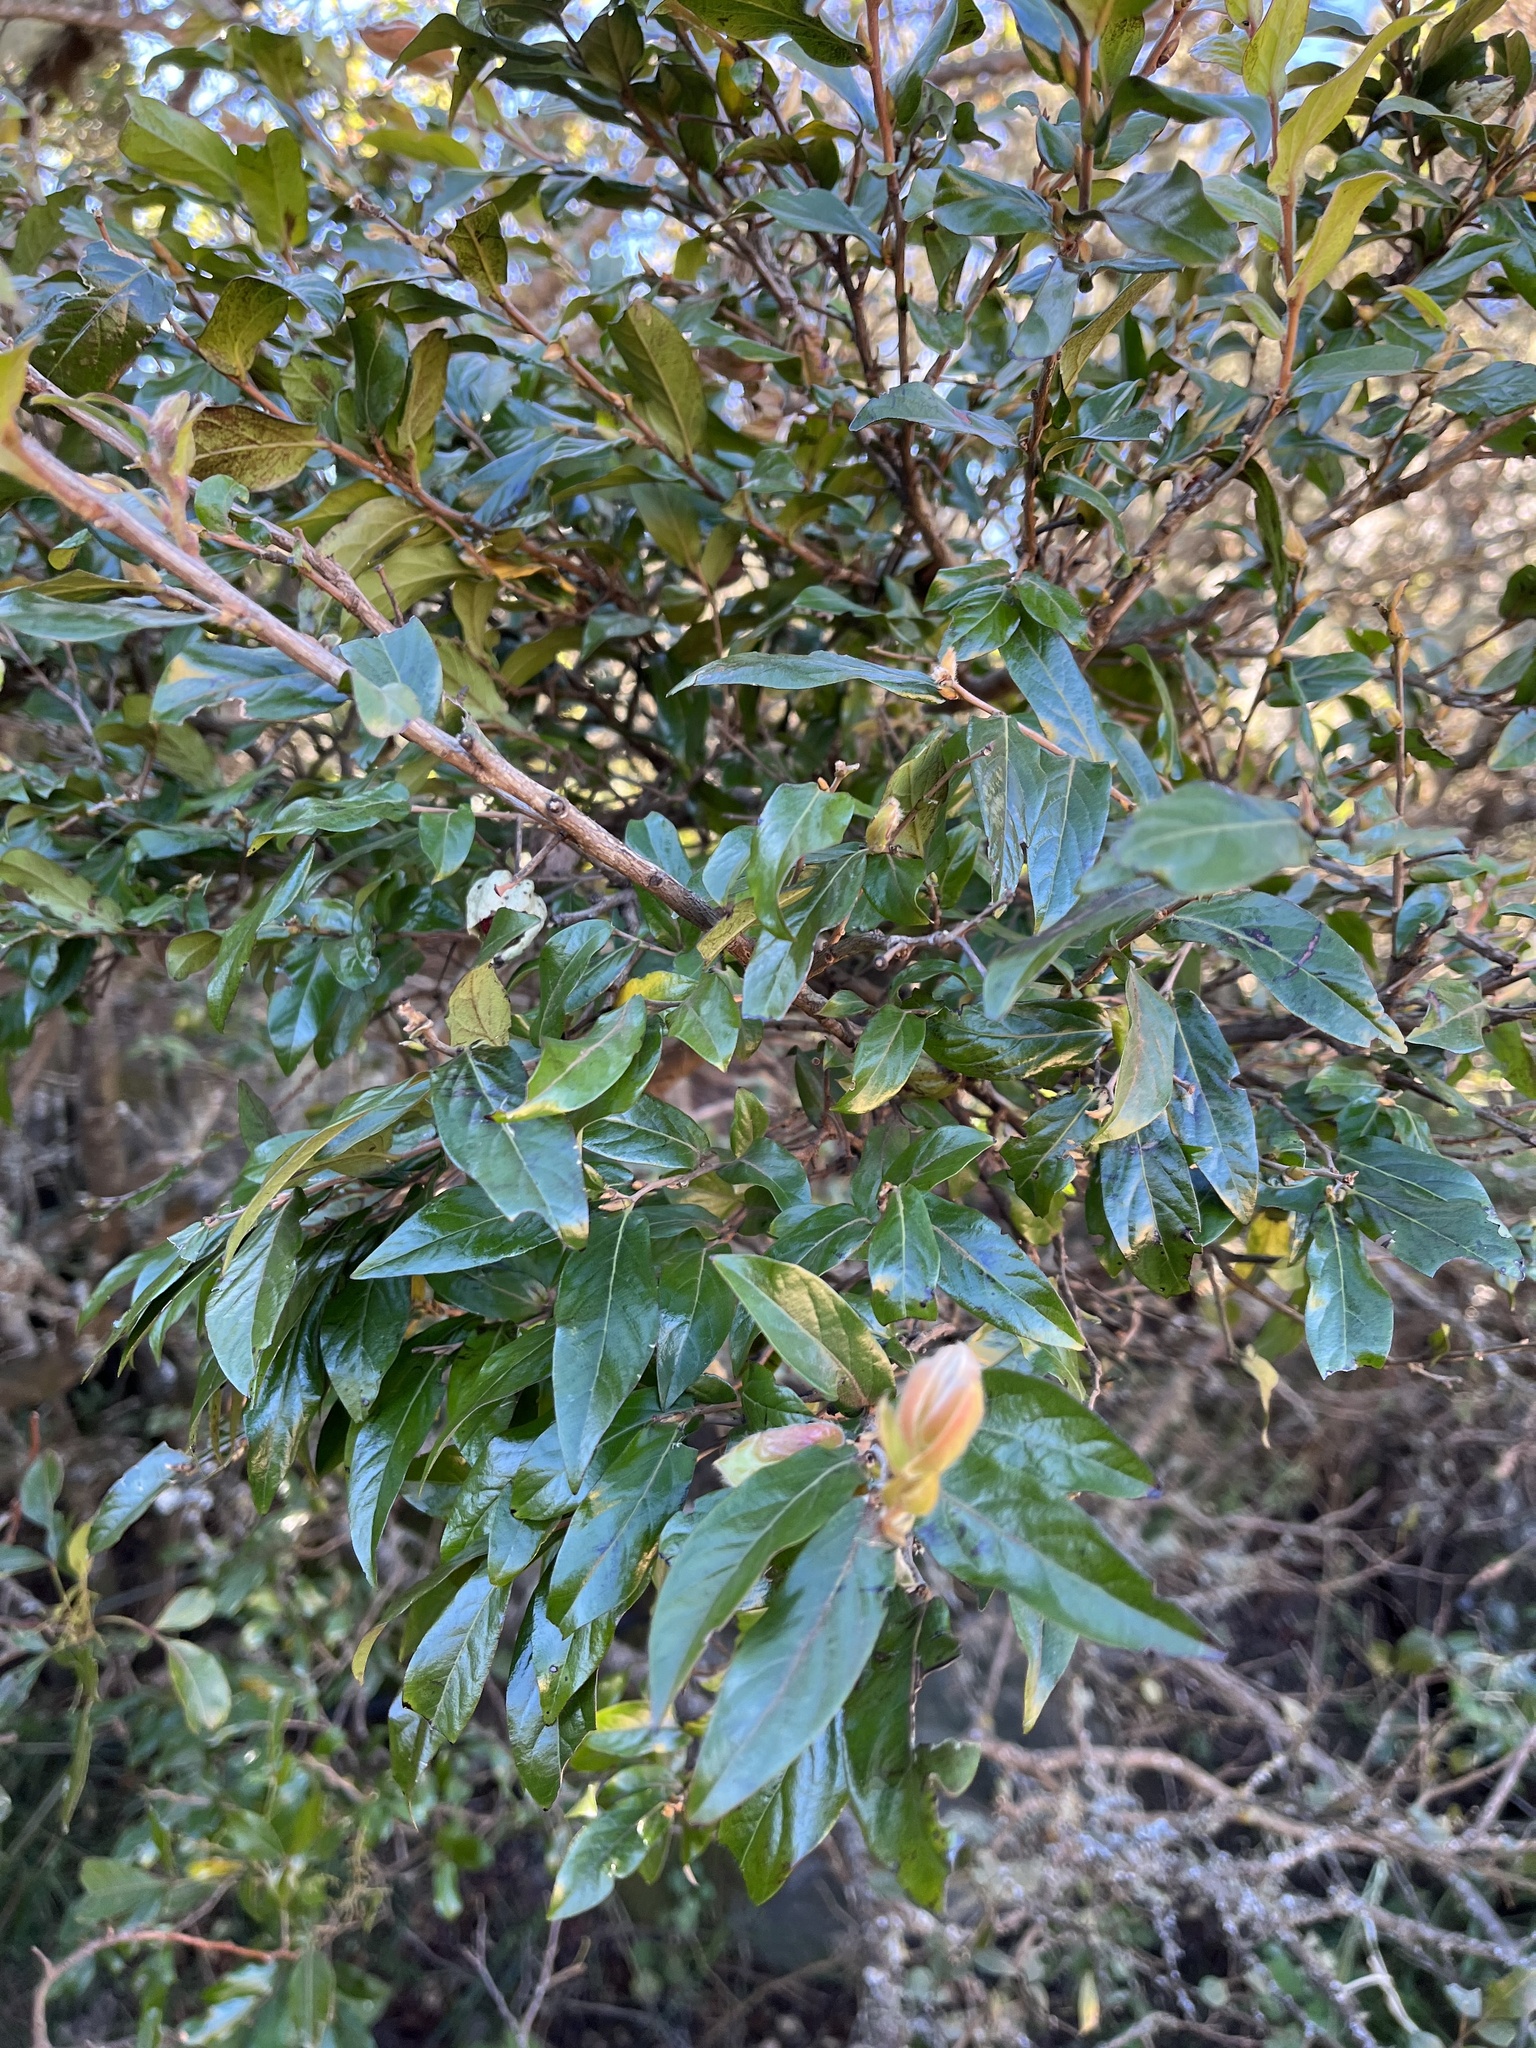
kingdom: Plantae
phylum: Tracheophyta
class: Magnoliopsida
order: Ericales
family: Ebenaceae
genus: Diospyros
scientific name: Diospyros whyteana
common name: Bladder-nut
